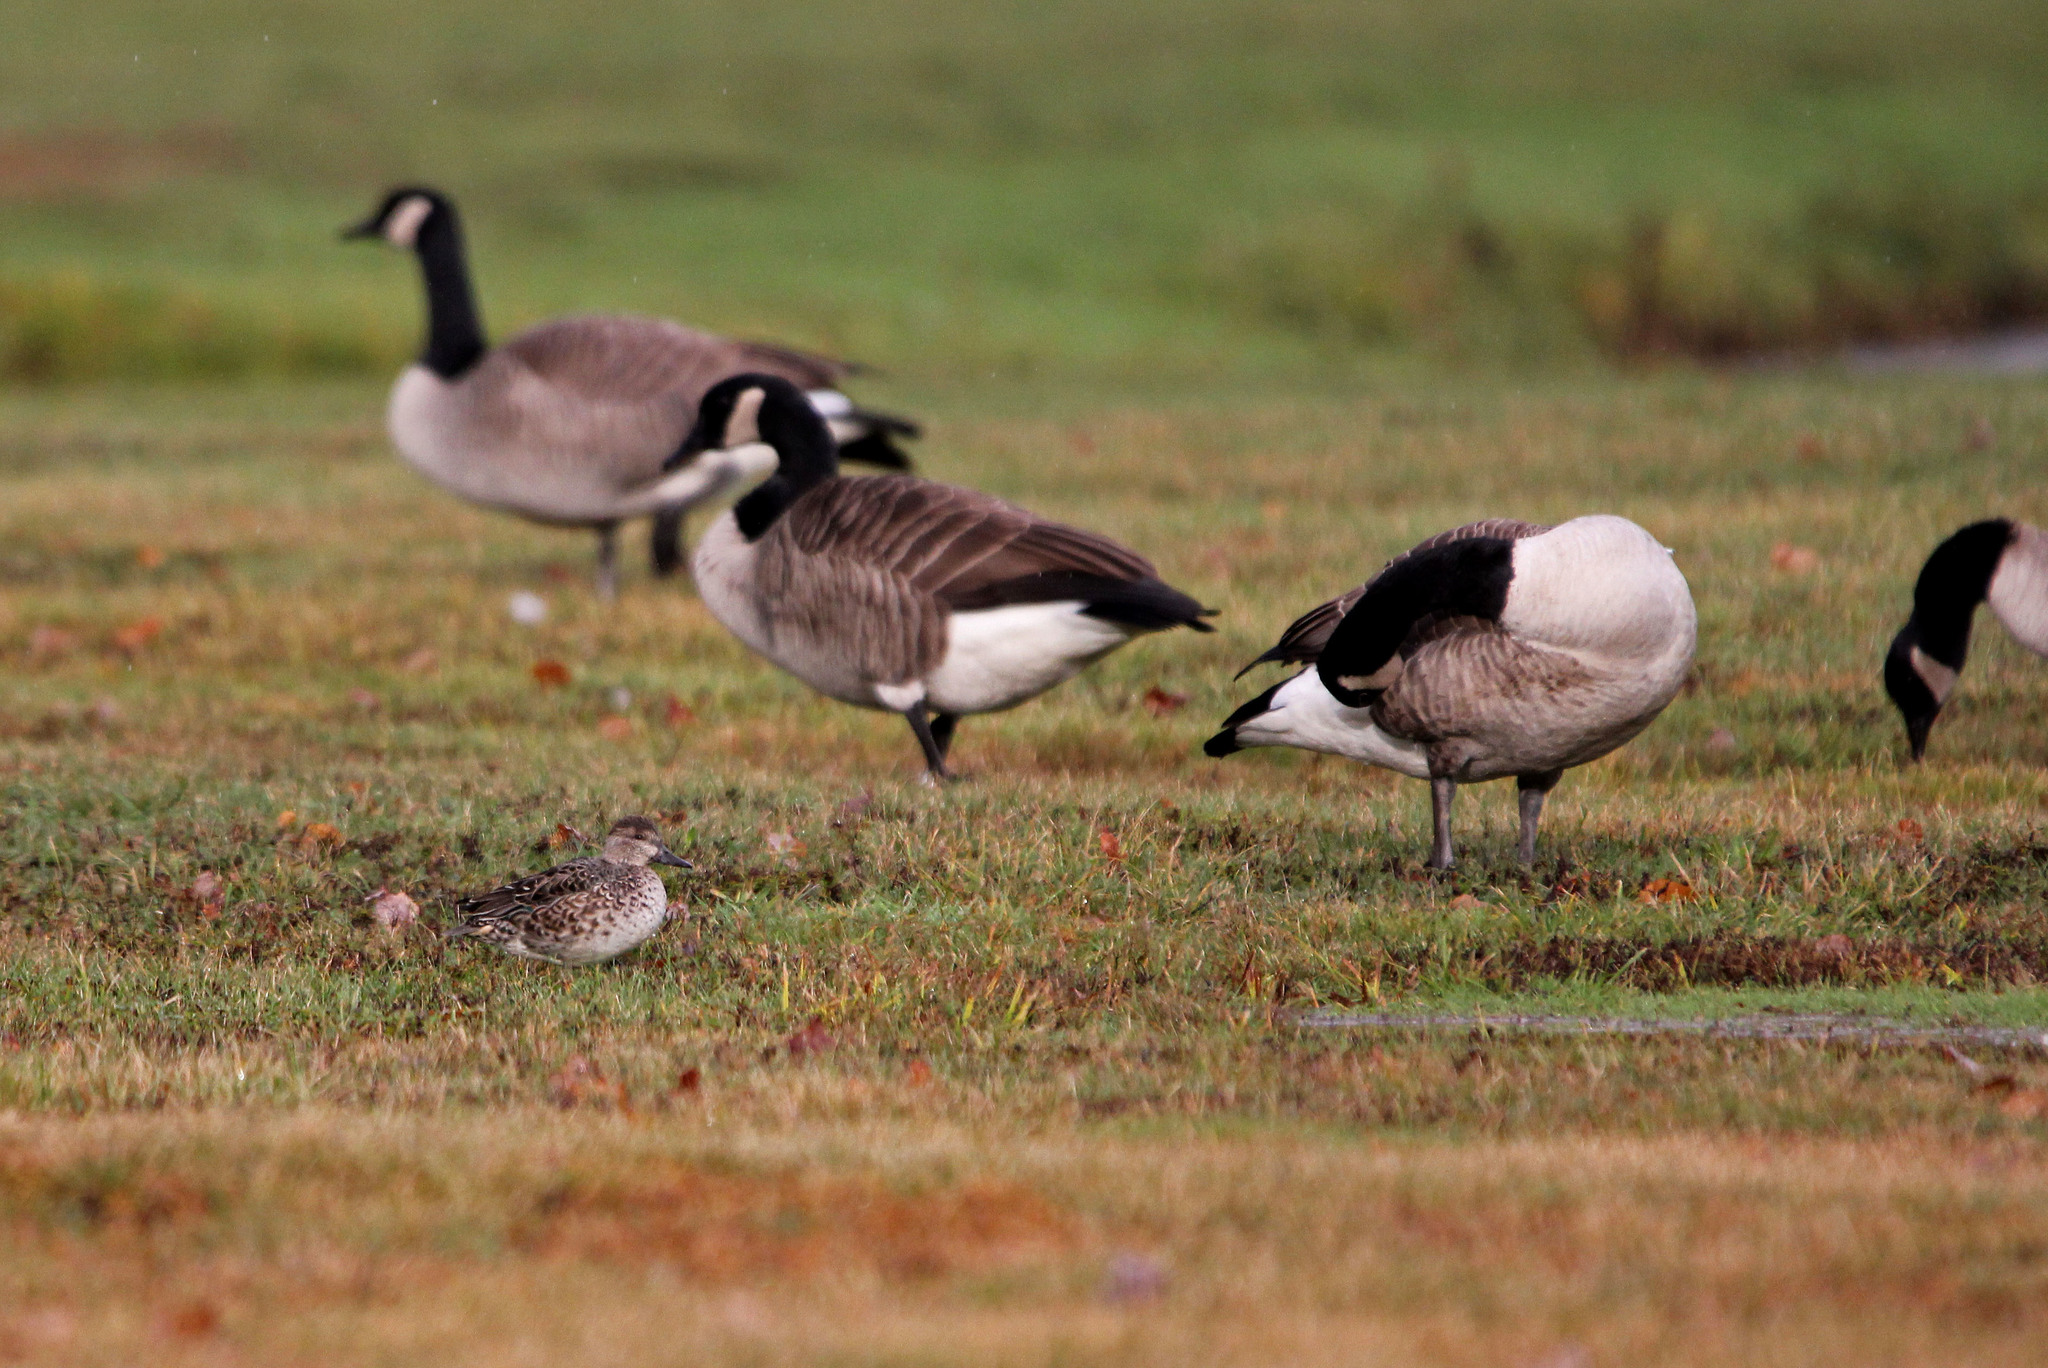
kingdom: Animalia
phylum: Chordata
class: Aves
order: Anseriformes
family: Anatidae
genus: Anas
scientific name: Anas crecca
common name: Eurasian teal
